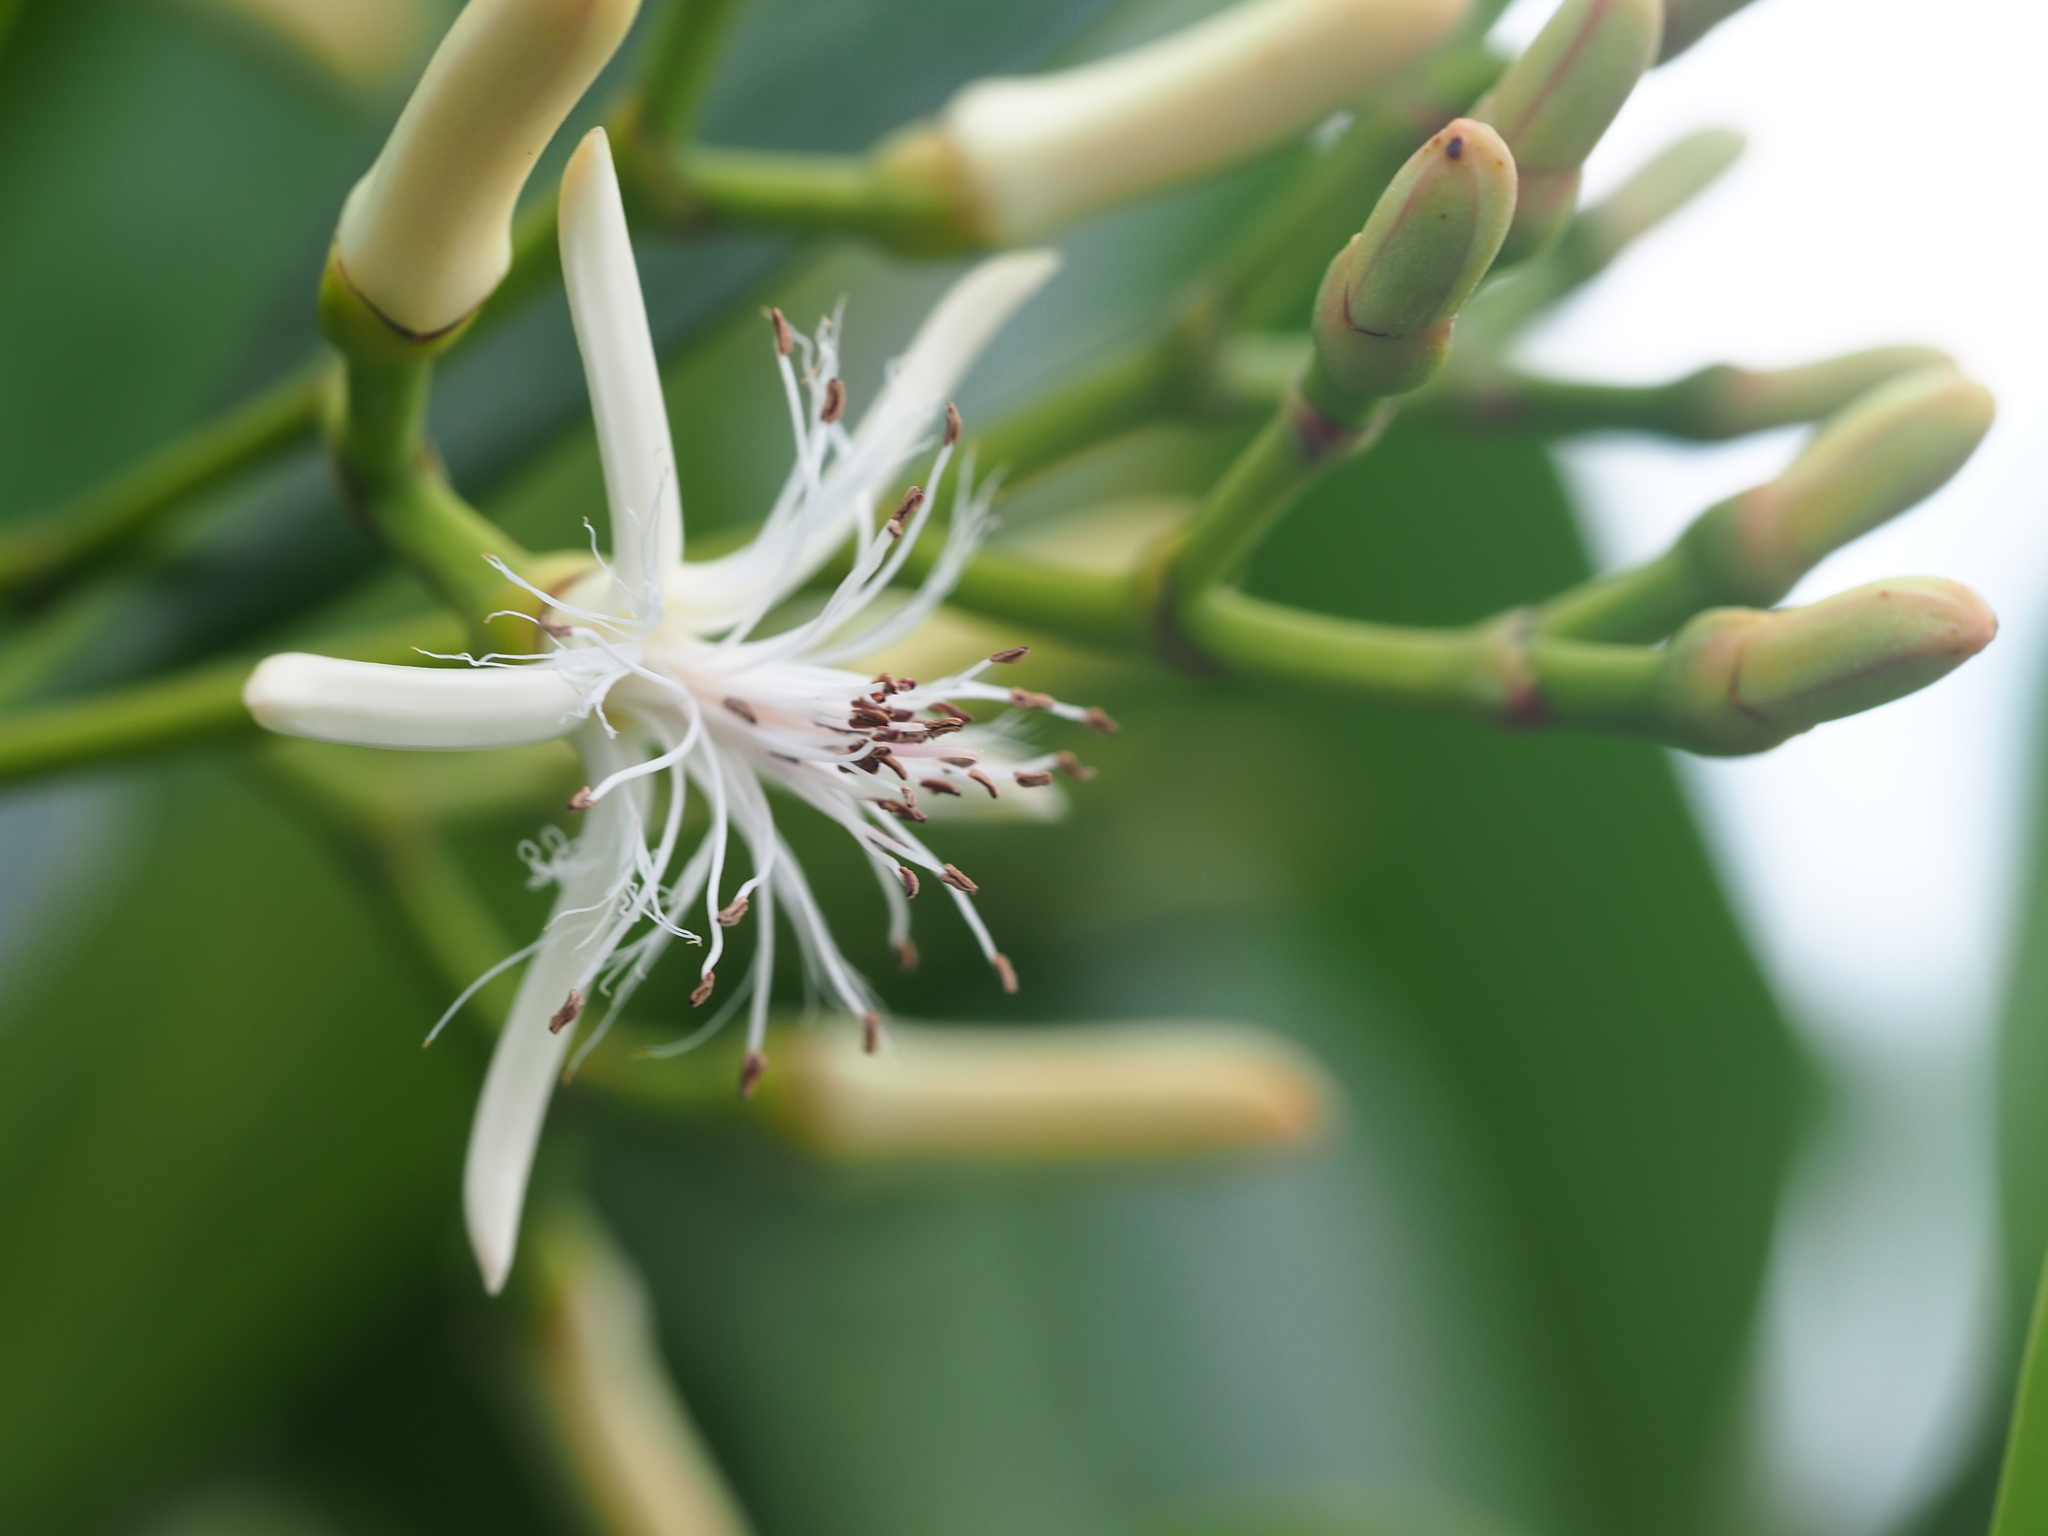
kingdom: Plantae
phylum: Tracheophyta
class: Magnoliopsida
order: Malpighiales
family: Rhizophoraceae
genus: Kandelia
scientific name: Kandelia obovata
